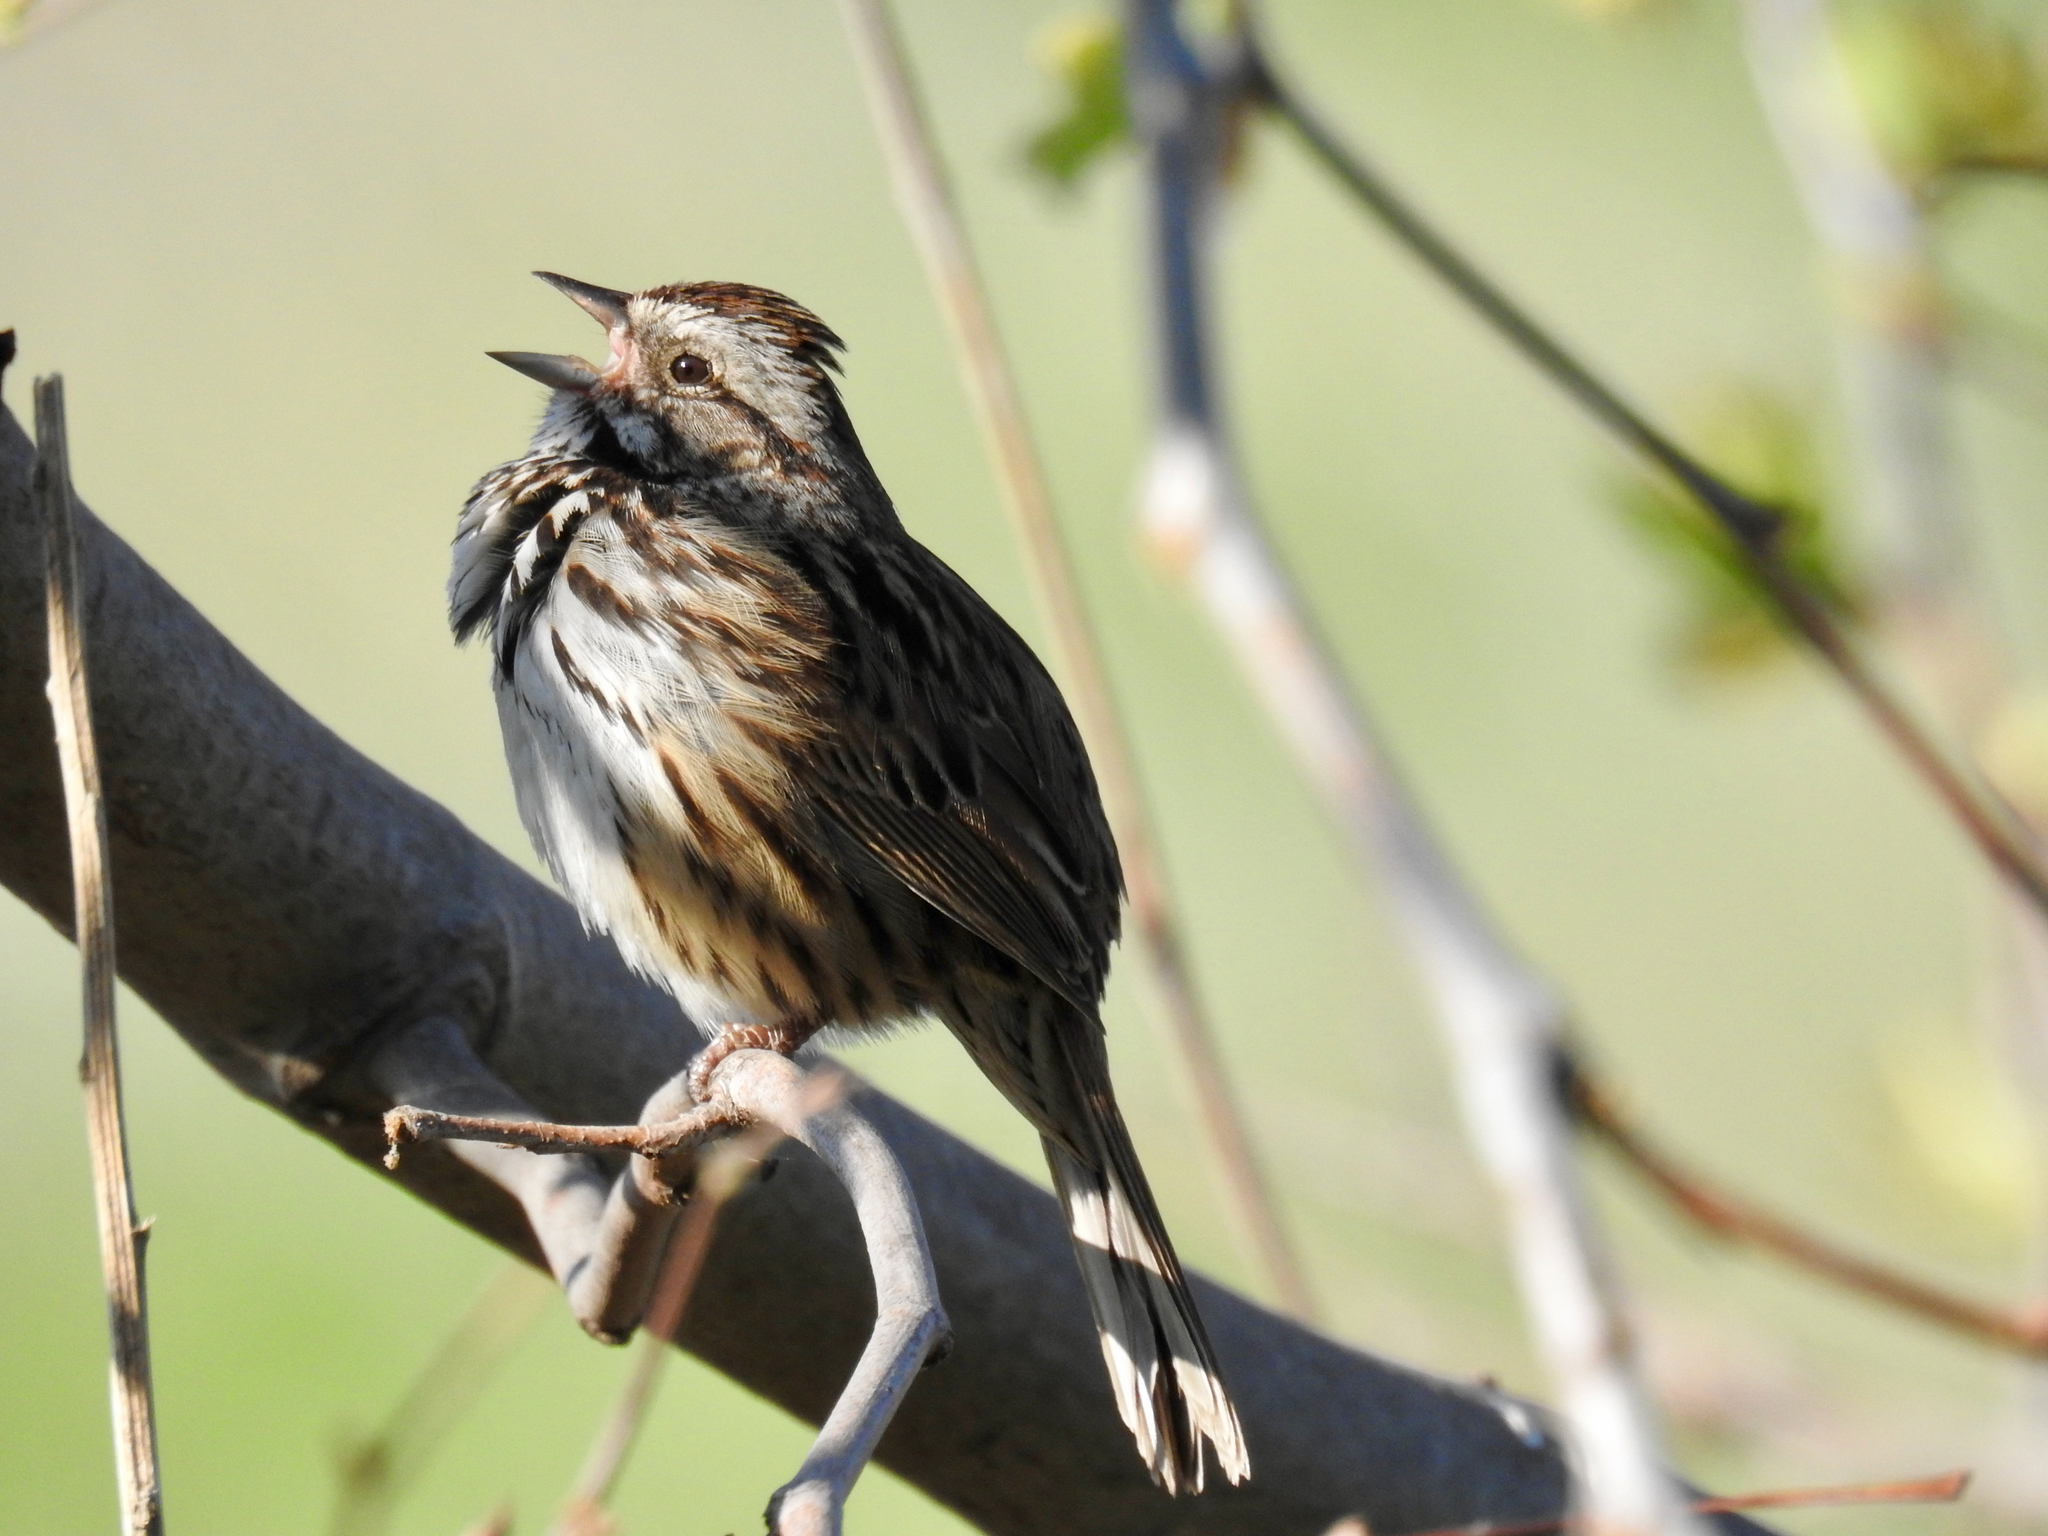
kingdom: Animalia
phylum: Chordata
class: Aves
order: Passeriformes
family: Passerellidae
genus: Melospiza
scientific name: Melospiza melodia
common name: Song sparrow
